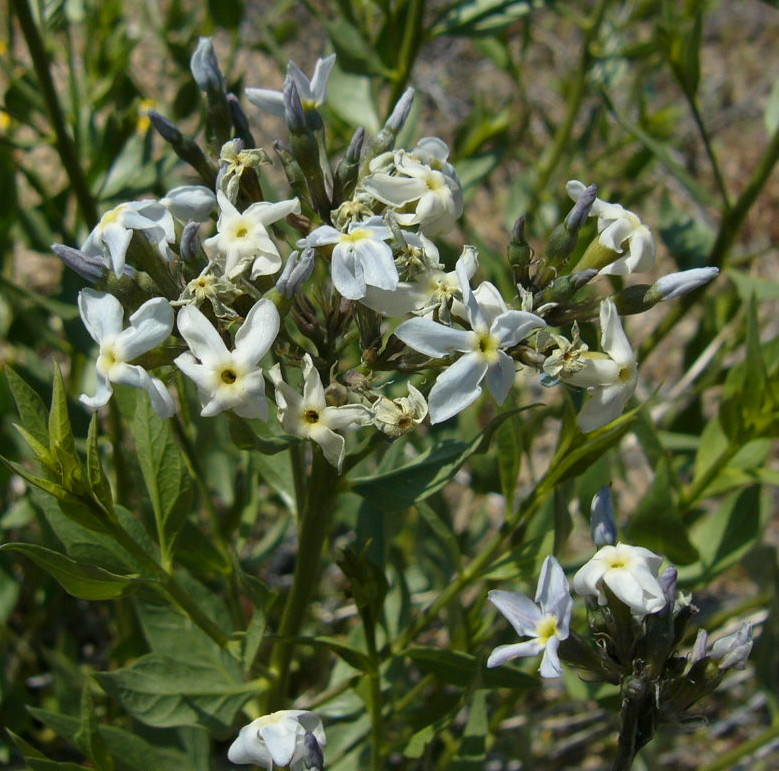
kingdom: Plantae
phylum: Tracheophyta
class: Magnoliopsida
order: Gentianales
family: Apocynaceae
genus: Amsonia
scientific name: Amsonia tomentosa
